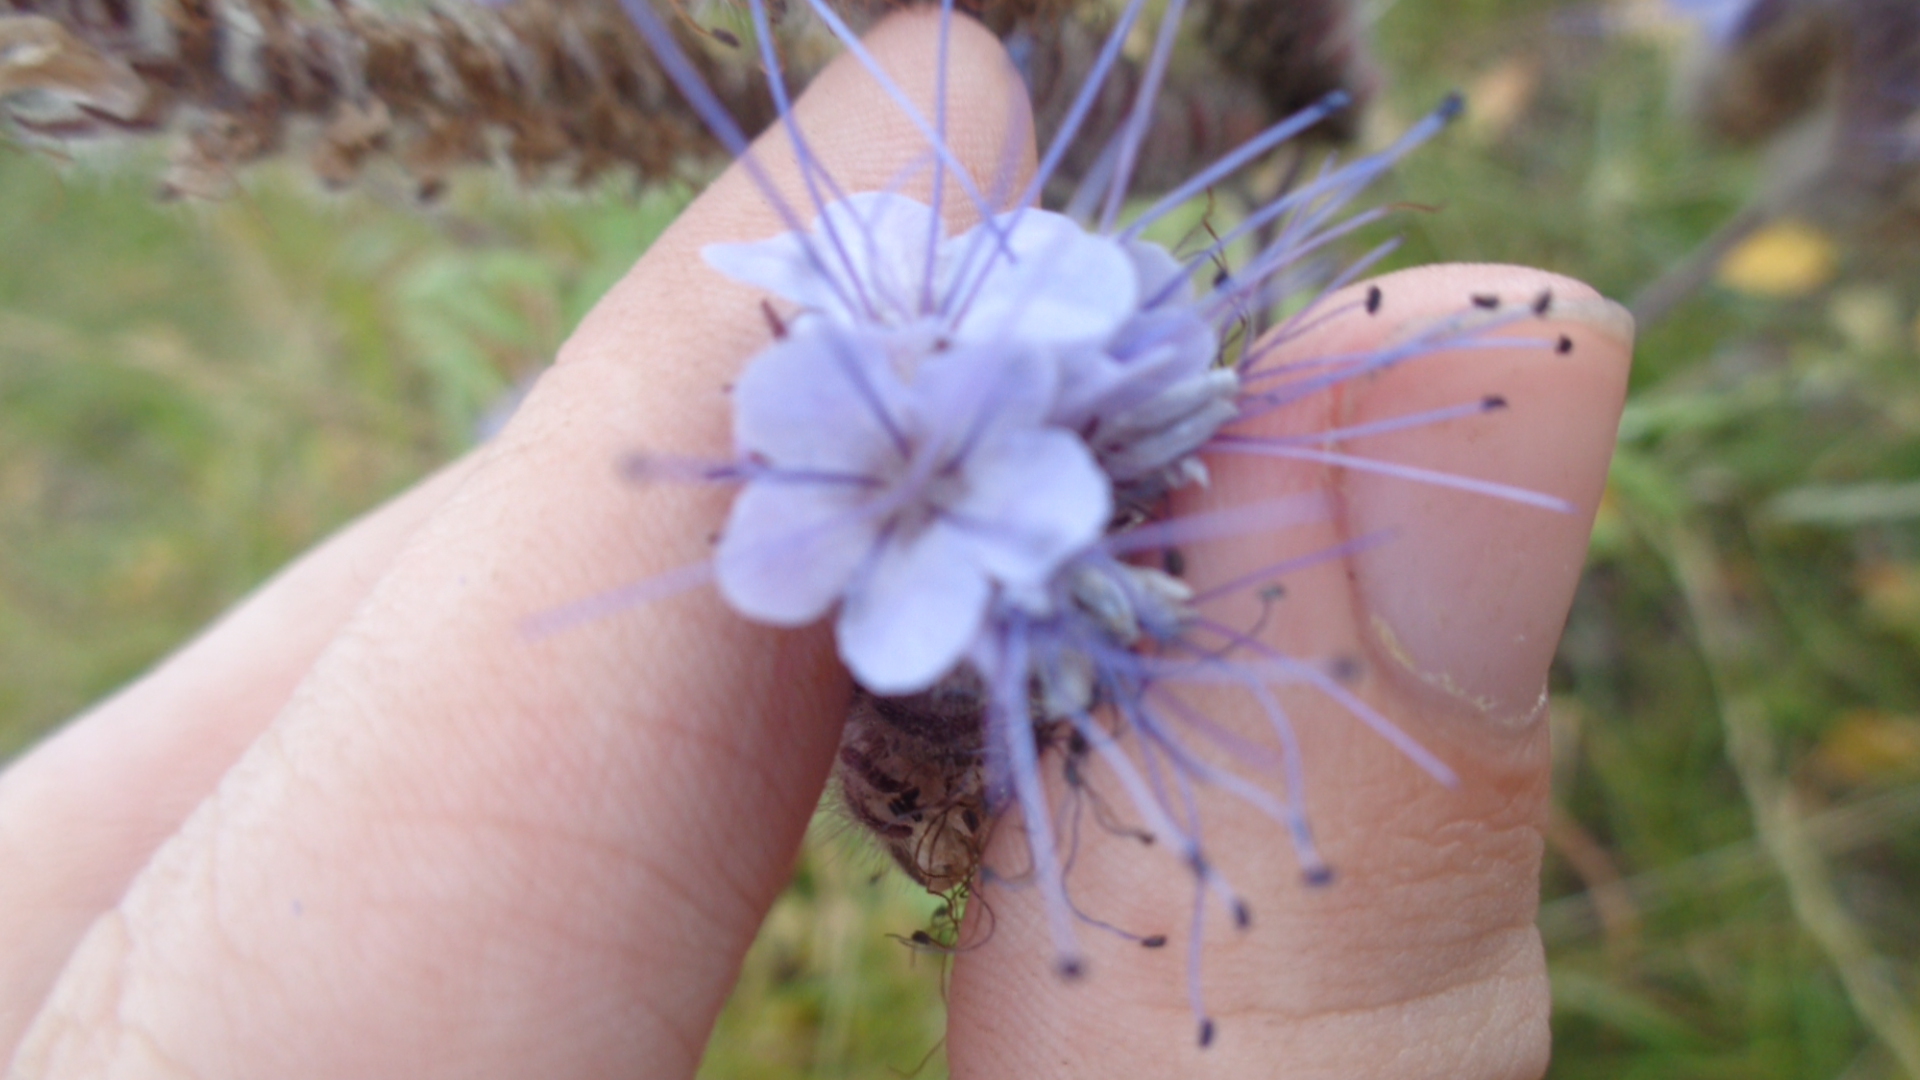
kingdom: Plantae
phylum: Tracheophyta
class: Magnoliopsida
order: Boraginales
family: Hydrophyllaceae
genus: Phacelia
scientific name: Phacelia tanacetifolia
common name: Phacelia
